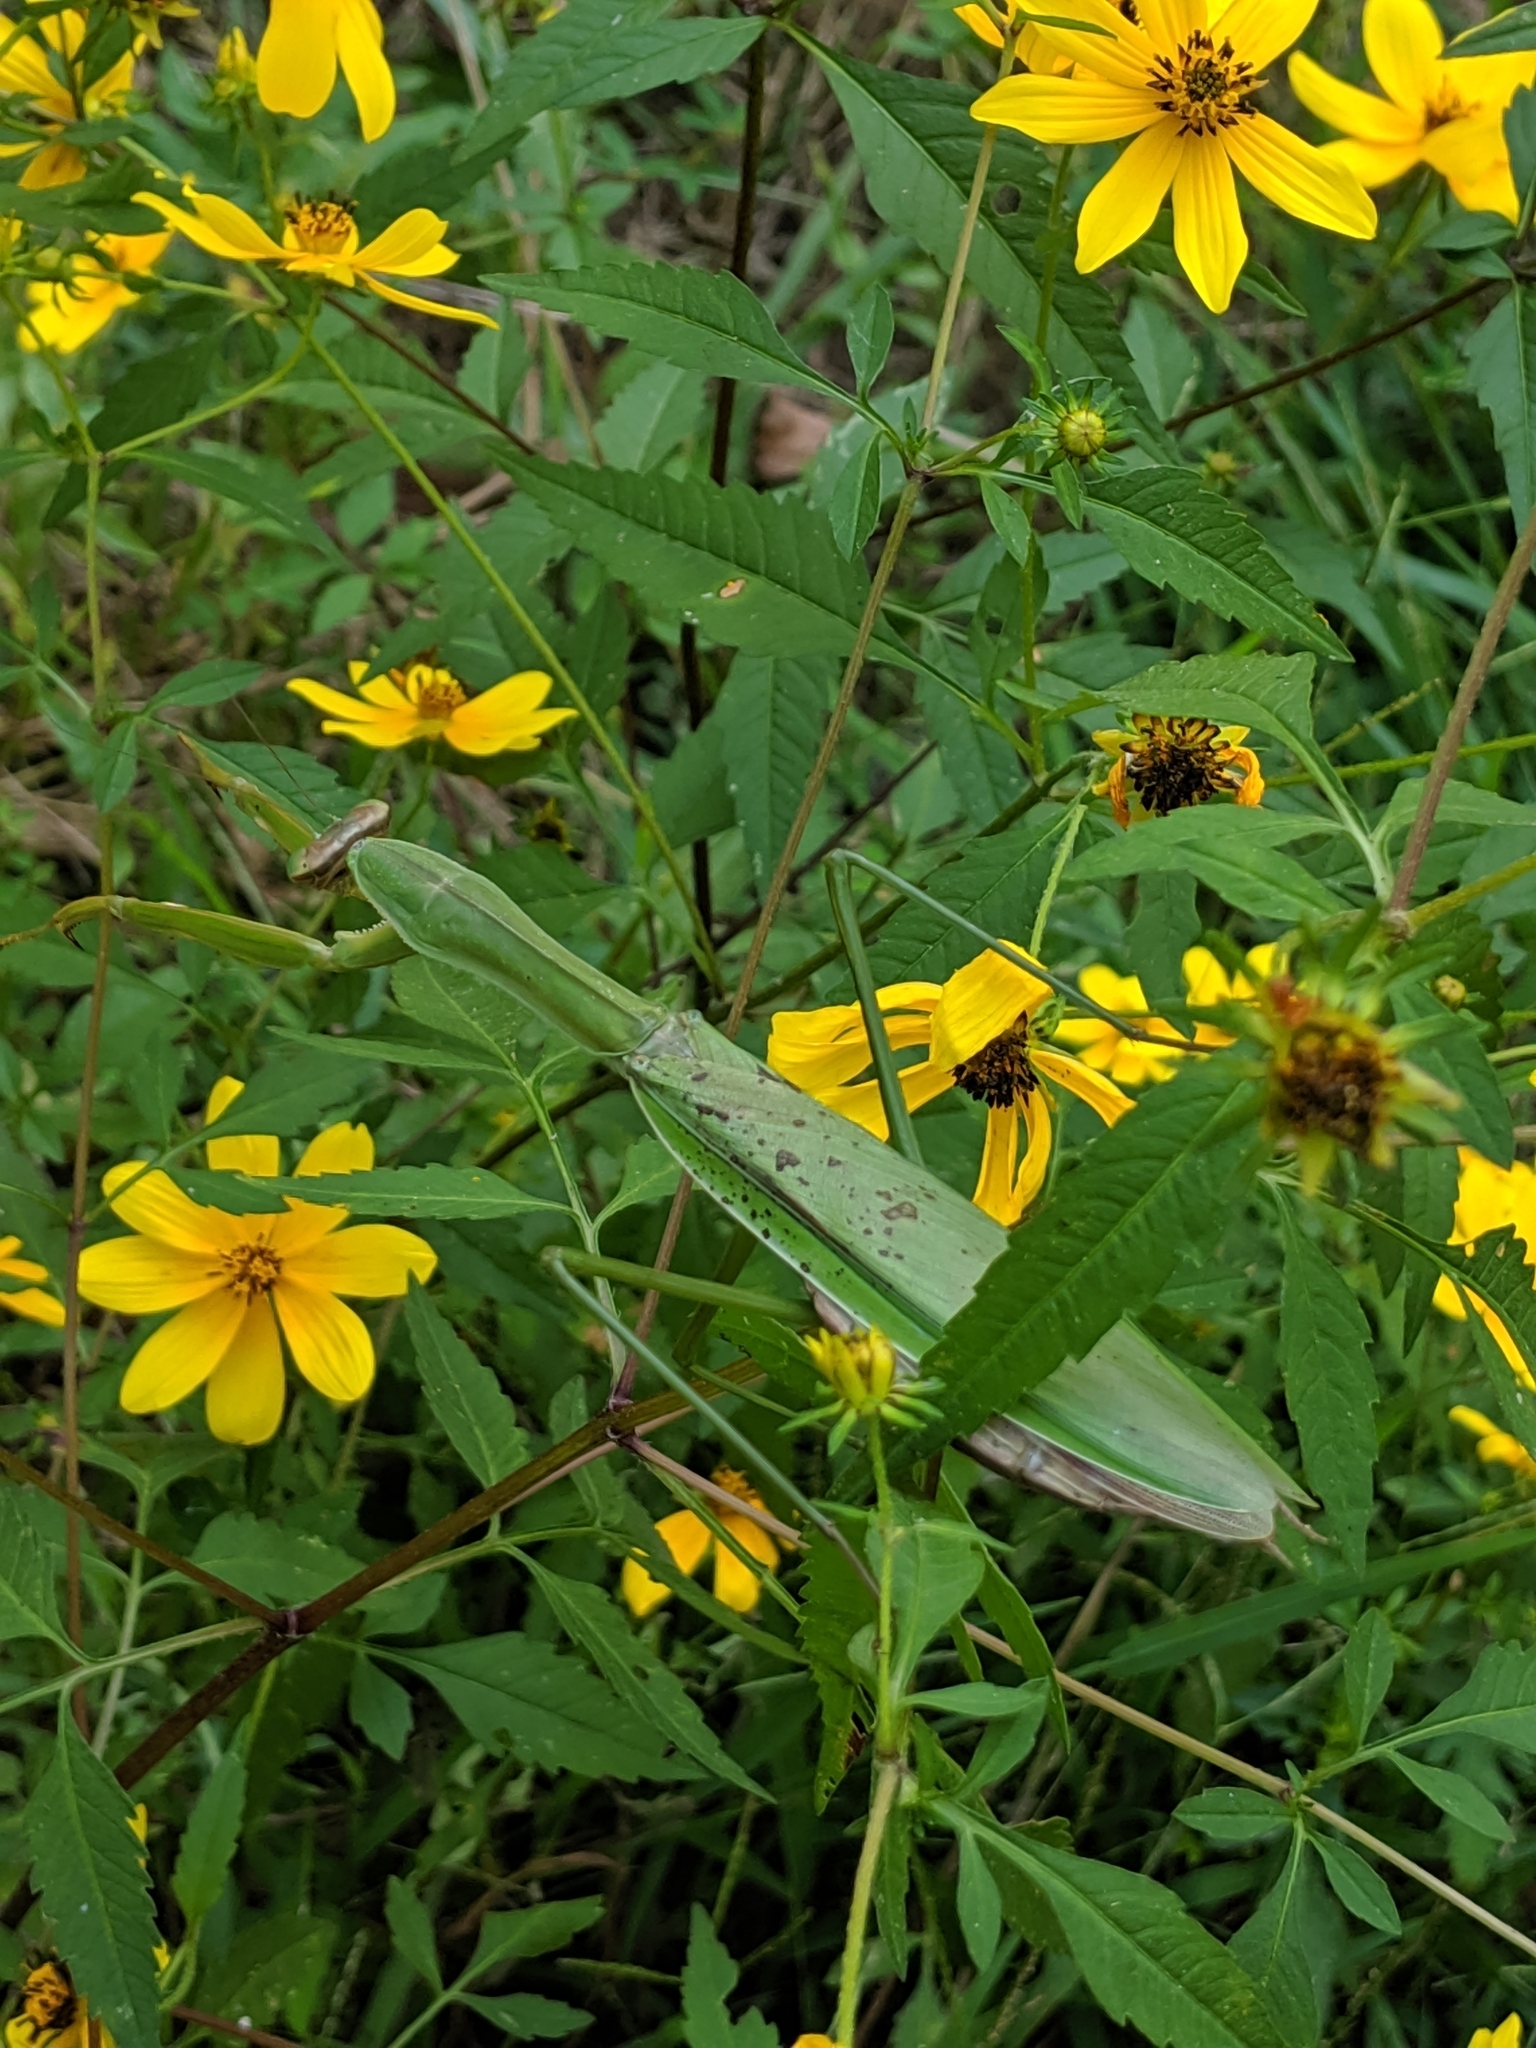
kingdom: Animalia
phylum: Arthropoda
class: Insecta
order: Mantodea
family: Mantidae
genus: Tenodera
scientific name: Tenodera sinensis
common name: Chinese mantis
